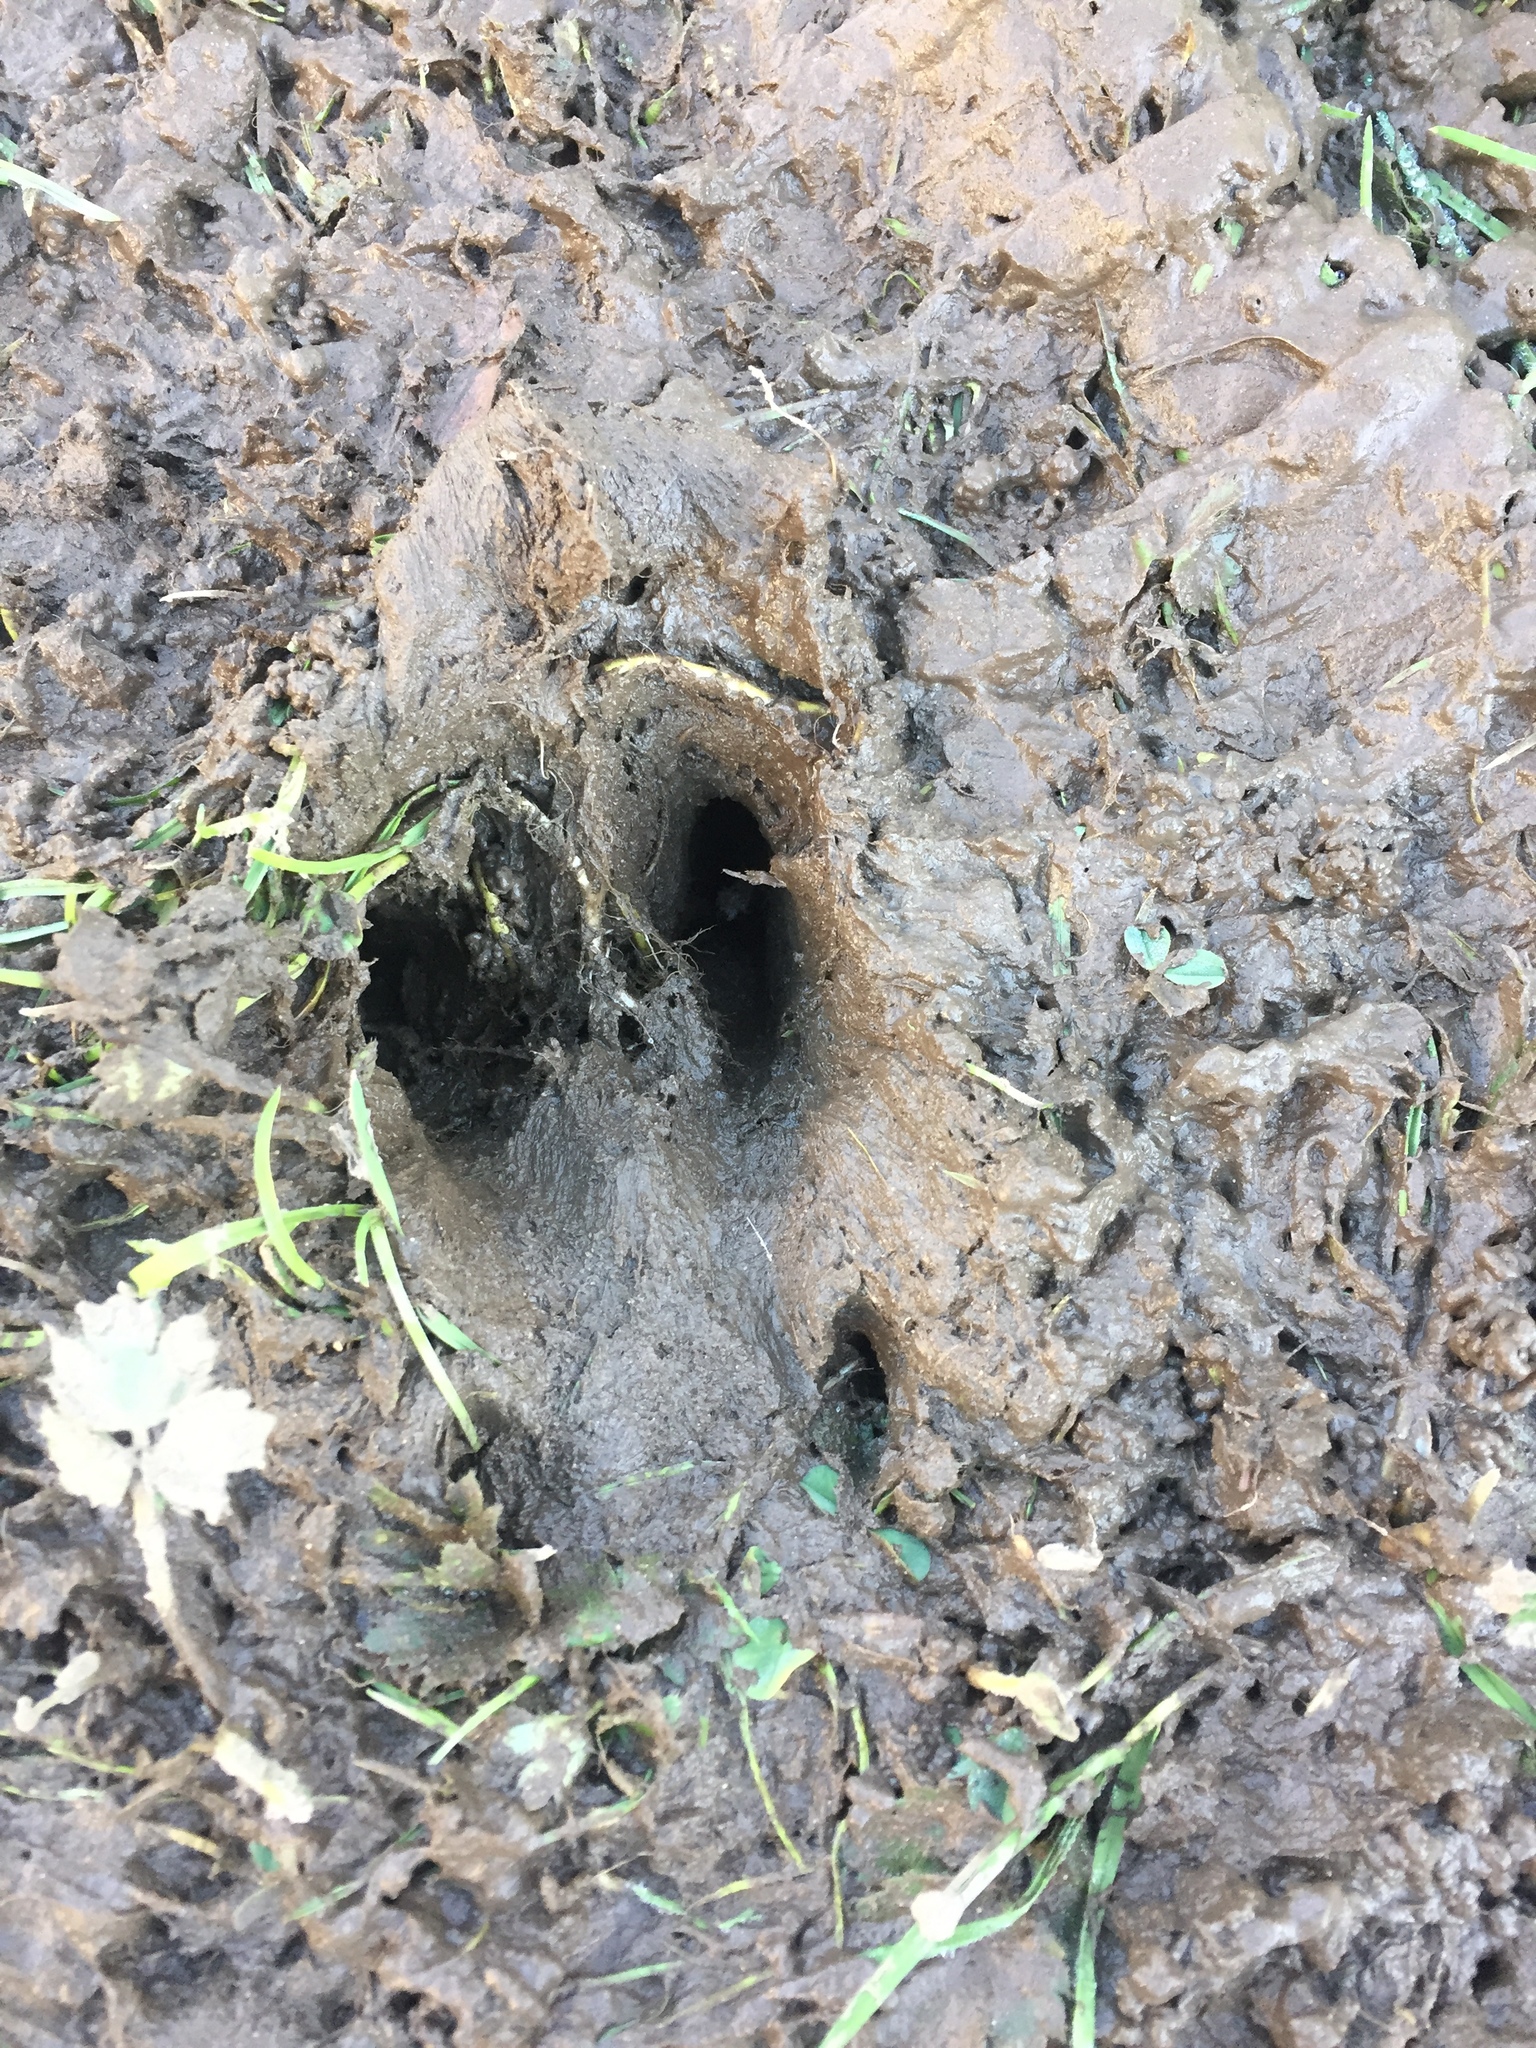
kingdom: Animalia
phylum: Chordata
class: Mammalia
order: Artiodactyla
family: Cervidae
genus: Odocoileus
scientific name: Odocoileus hemionus
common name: Mule deer
